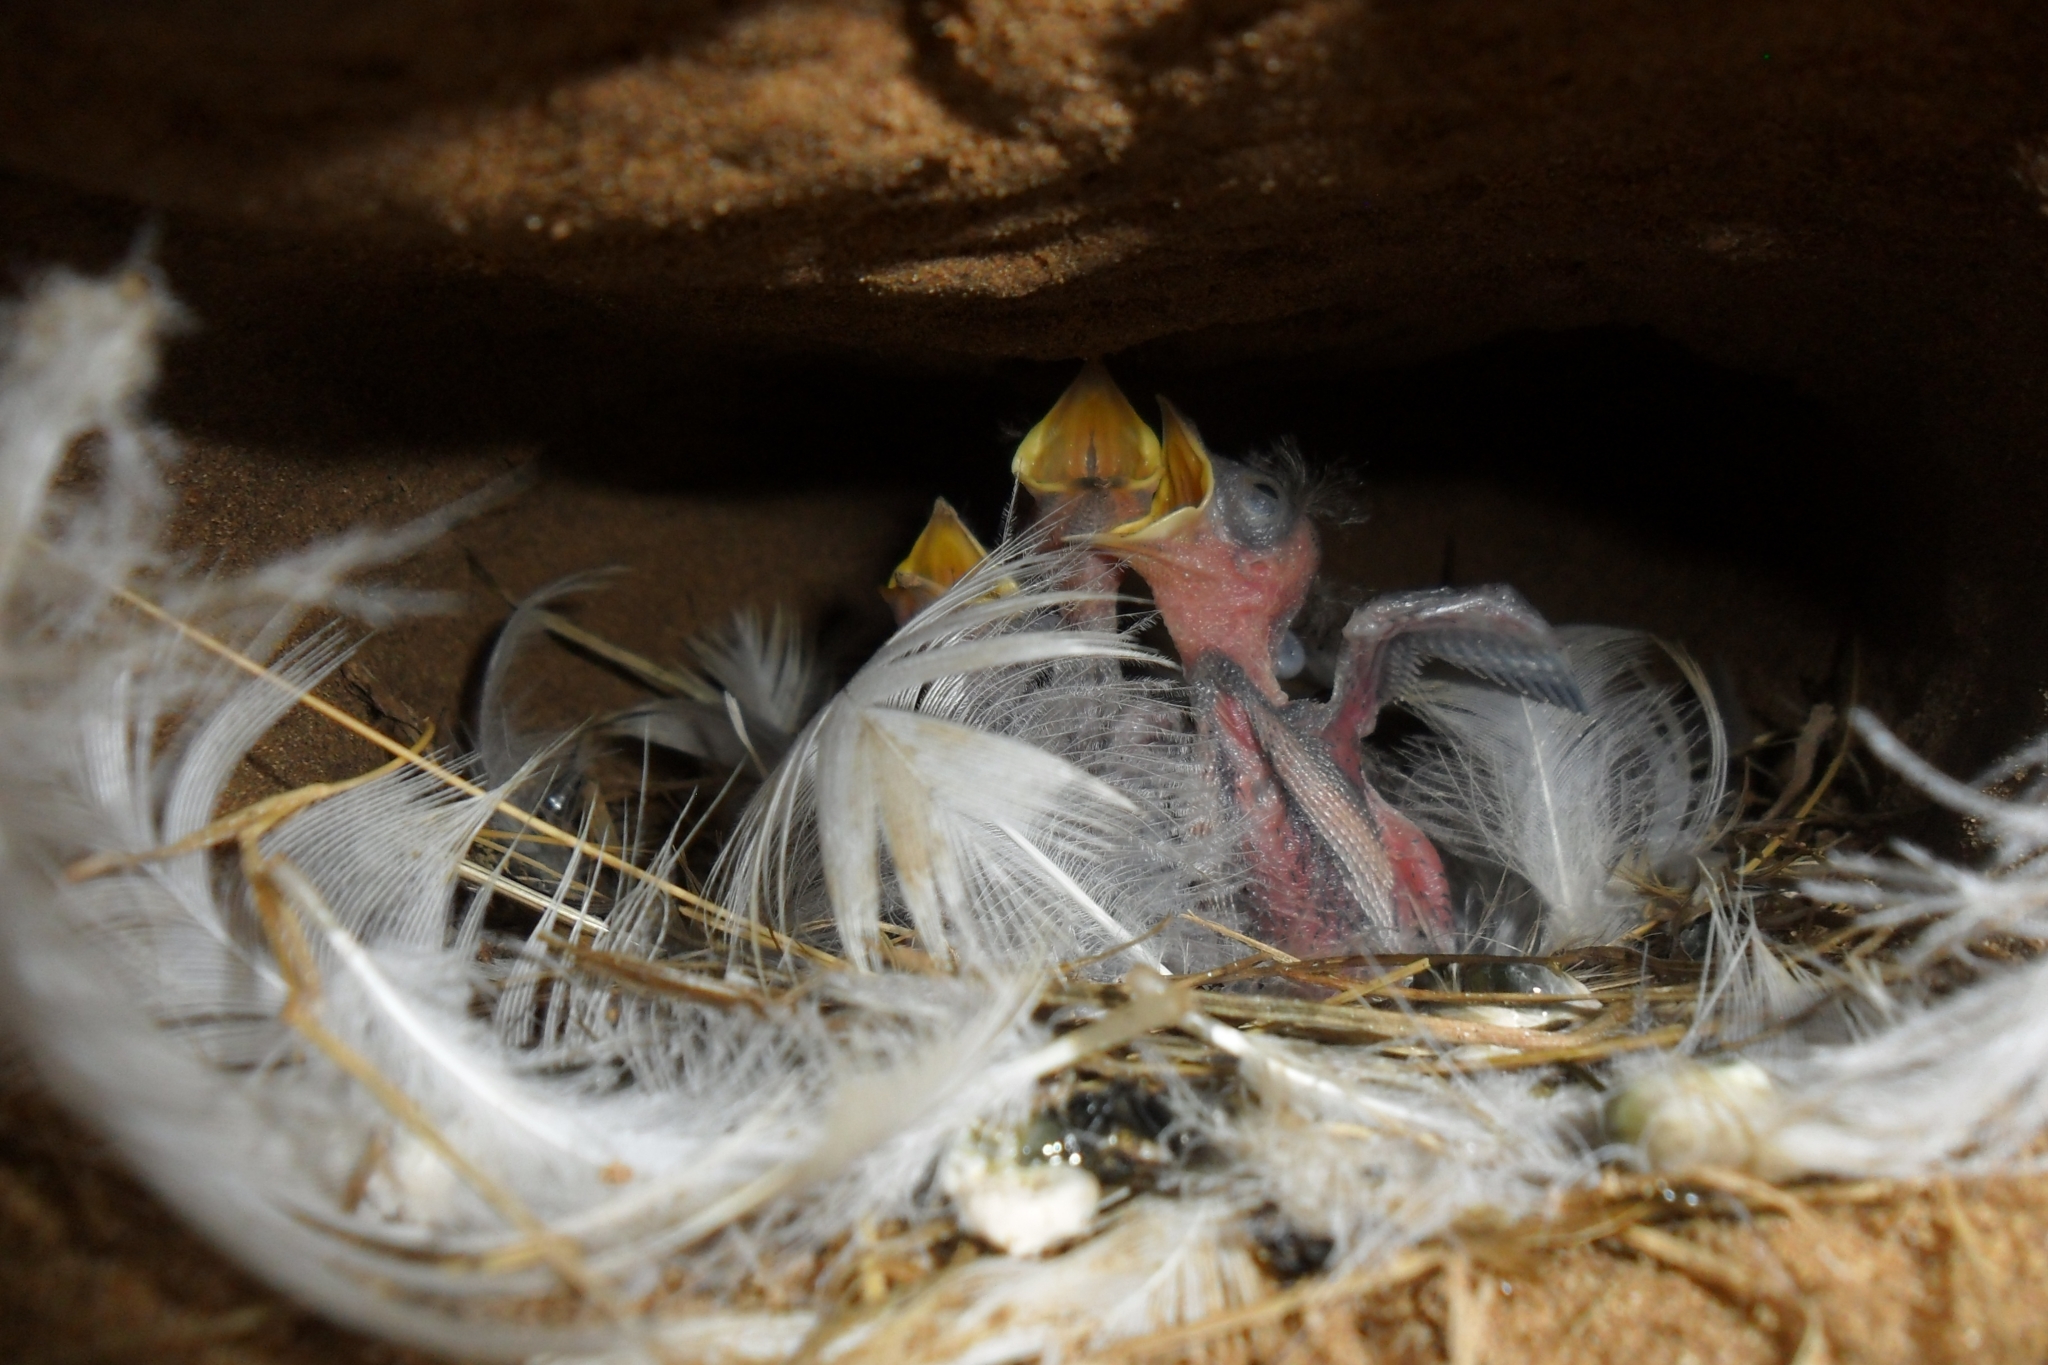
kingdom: Animalia
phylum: Chordata
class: Aves
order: Passeriformes
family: Hirundinidae
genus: Hirundo
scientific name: Hirundo rustica
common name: Barn swallow
